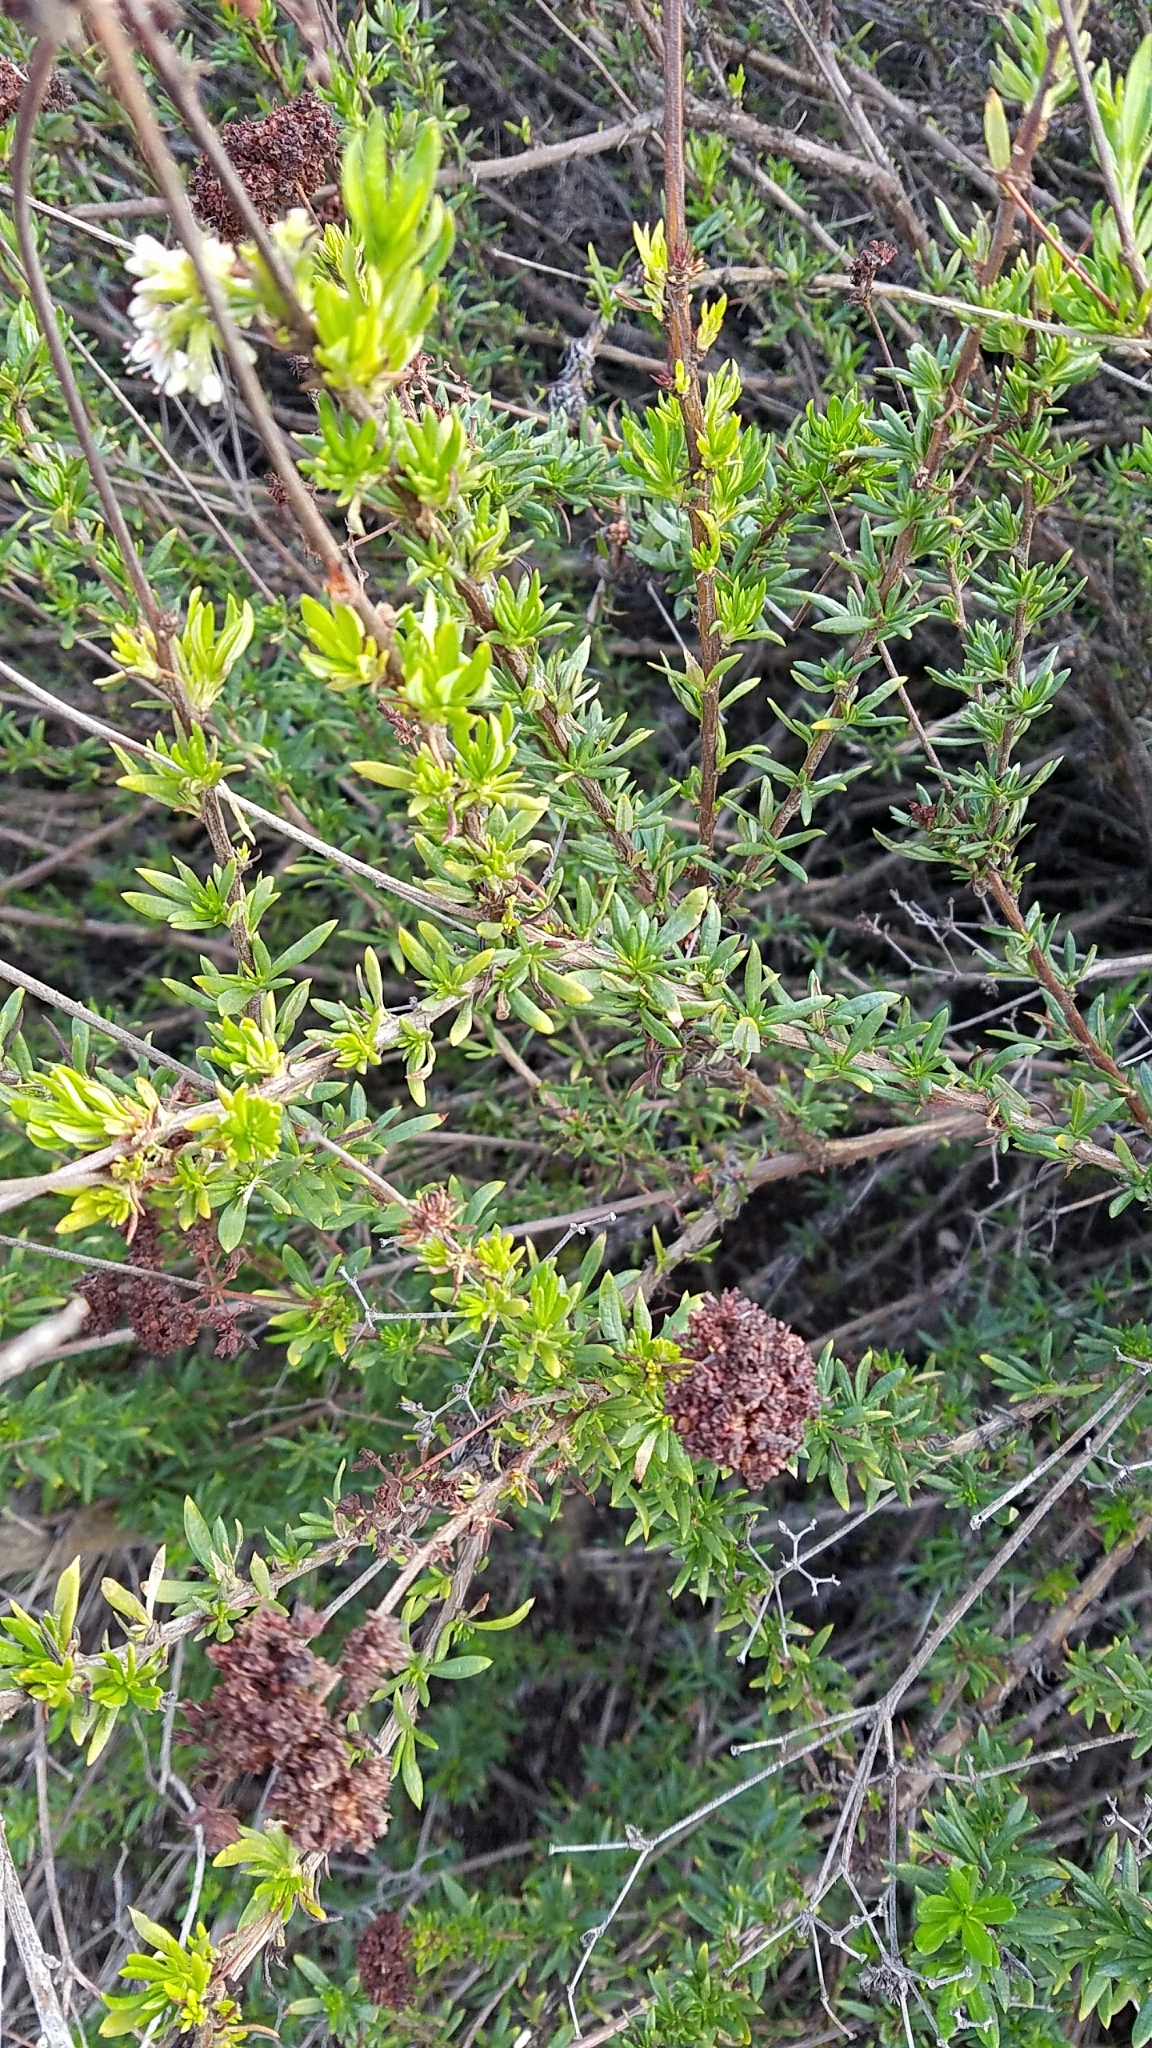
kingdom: Plantae
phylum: Tracheophyta
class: Magnoliopsida
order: Caryophyllales
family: Polygonaceae
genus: Eriogonum
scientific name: Eriogonum fasciculatum
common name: California wild buckwheat
